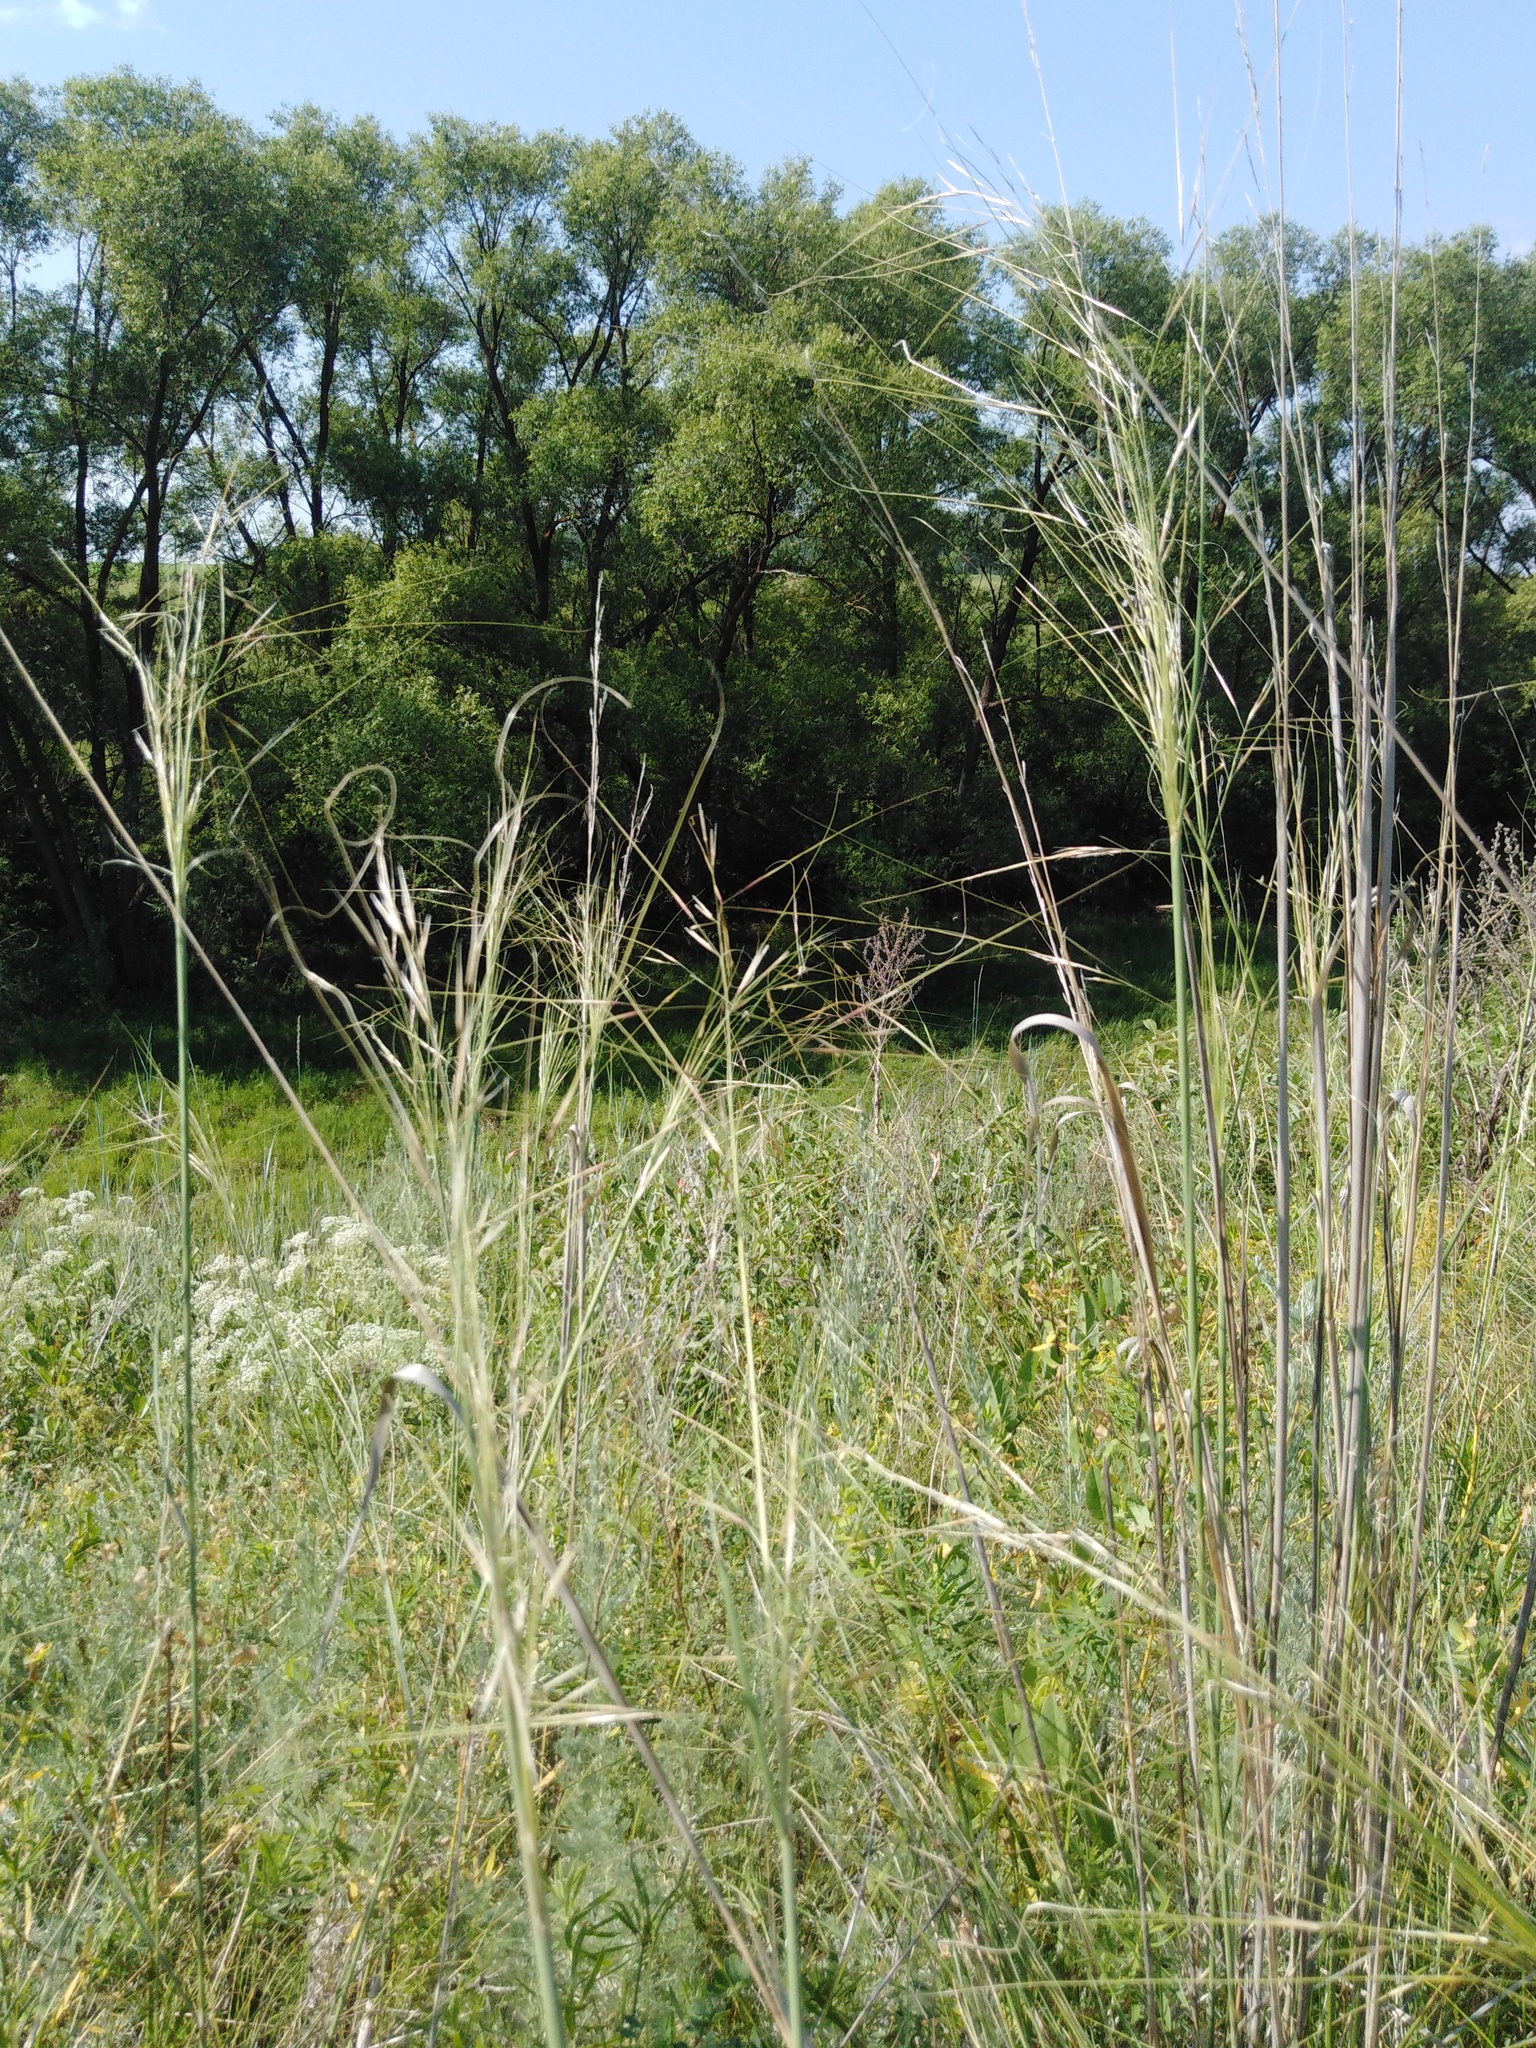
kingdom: Plantae
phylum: Tracheophyta
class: Liliopsida
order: Poales
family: Poaceae
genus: Stipa
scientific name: Stipa capillata
